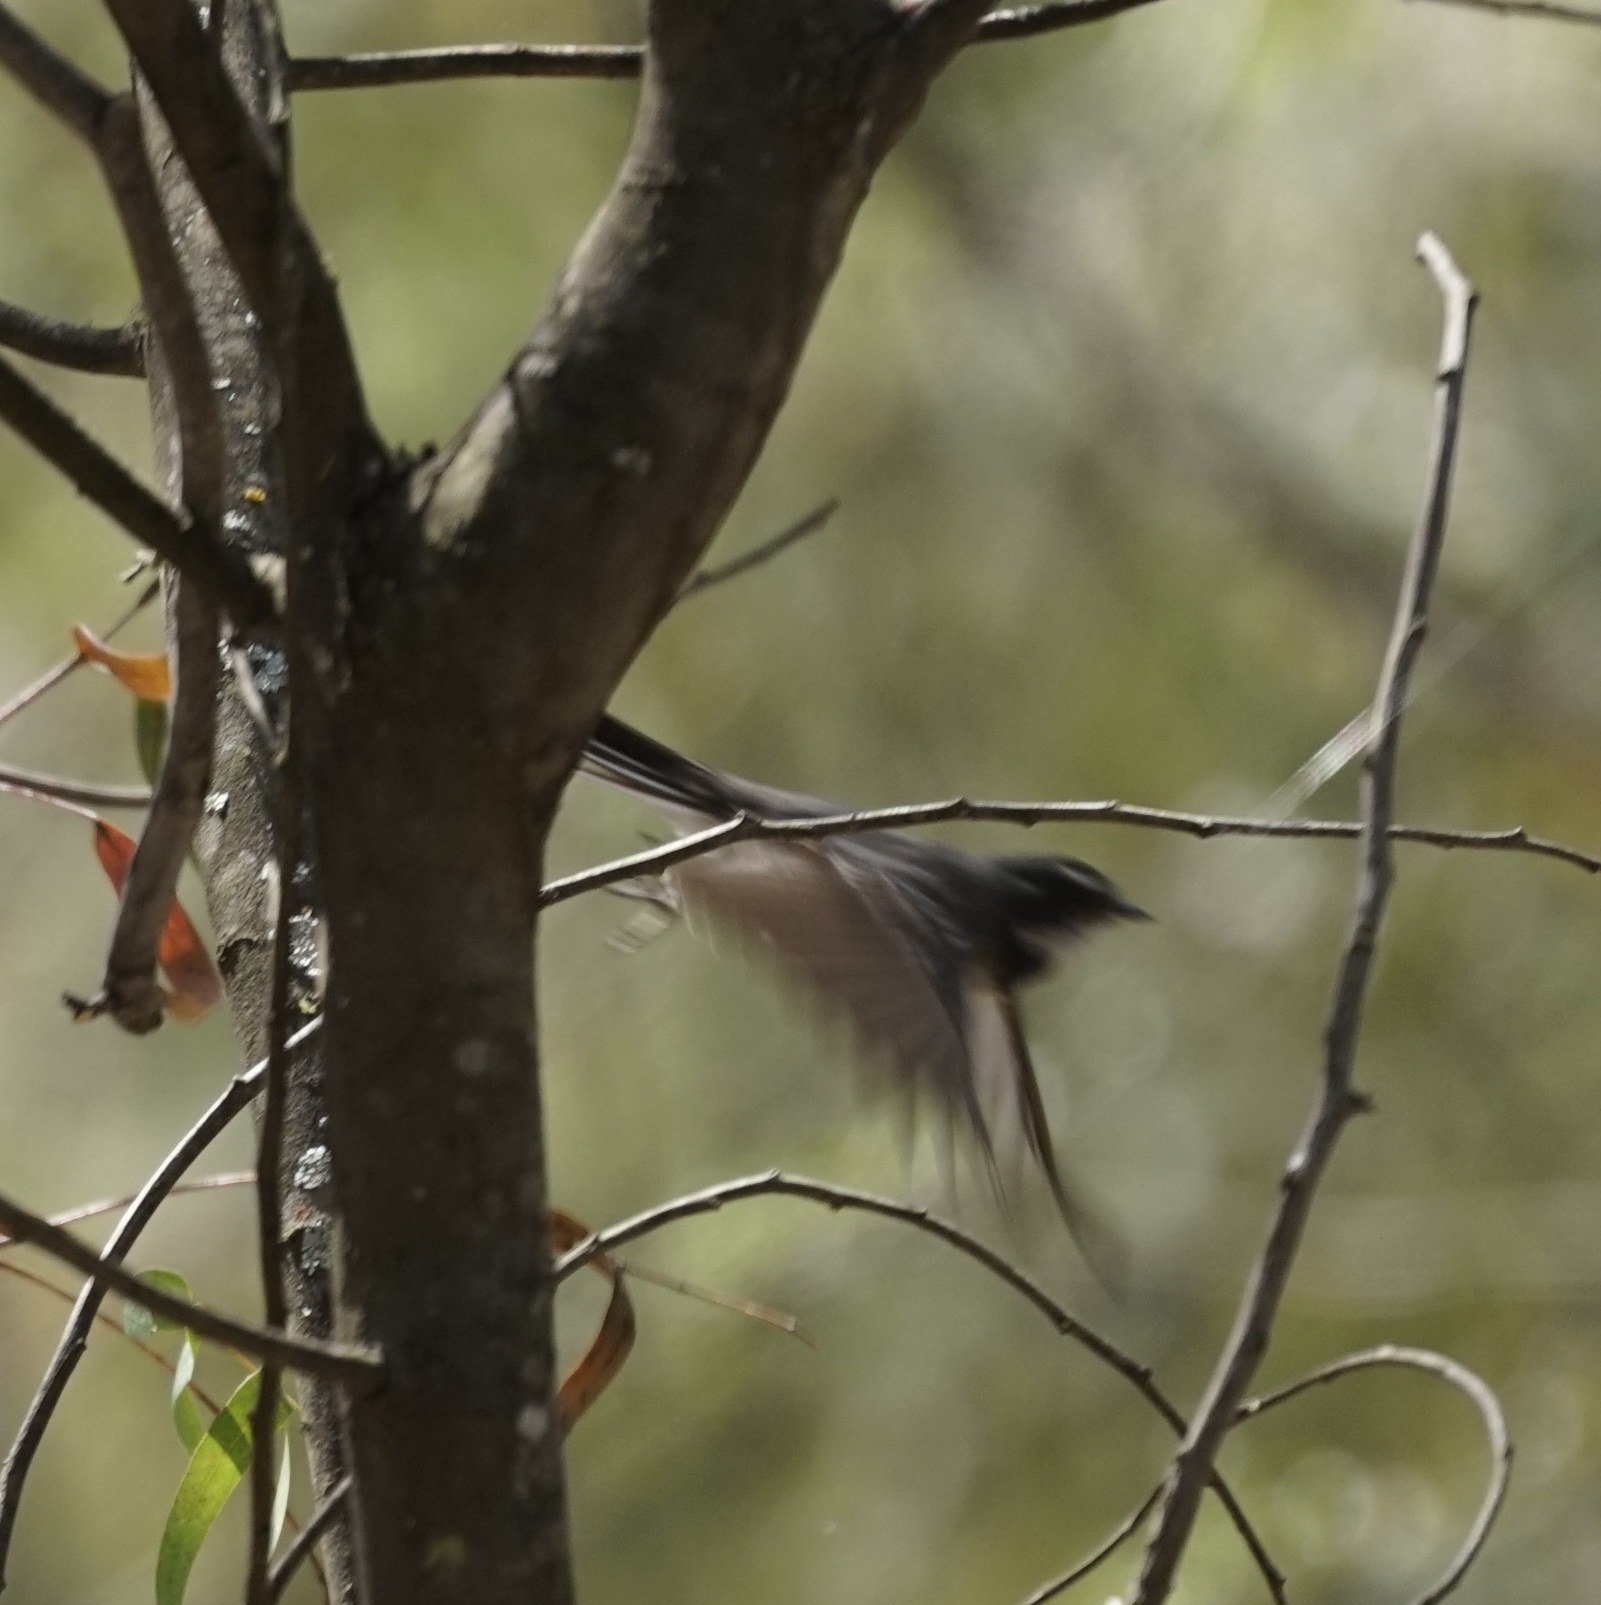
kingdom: Animalia
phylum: Chordata
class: Aves
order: Passeriformes
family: Rhipiduridae
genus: Rhipidura
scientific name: Rhipidura albiscapa
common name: Grey fantail
